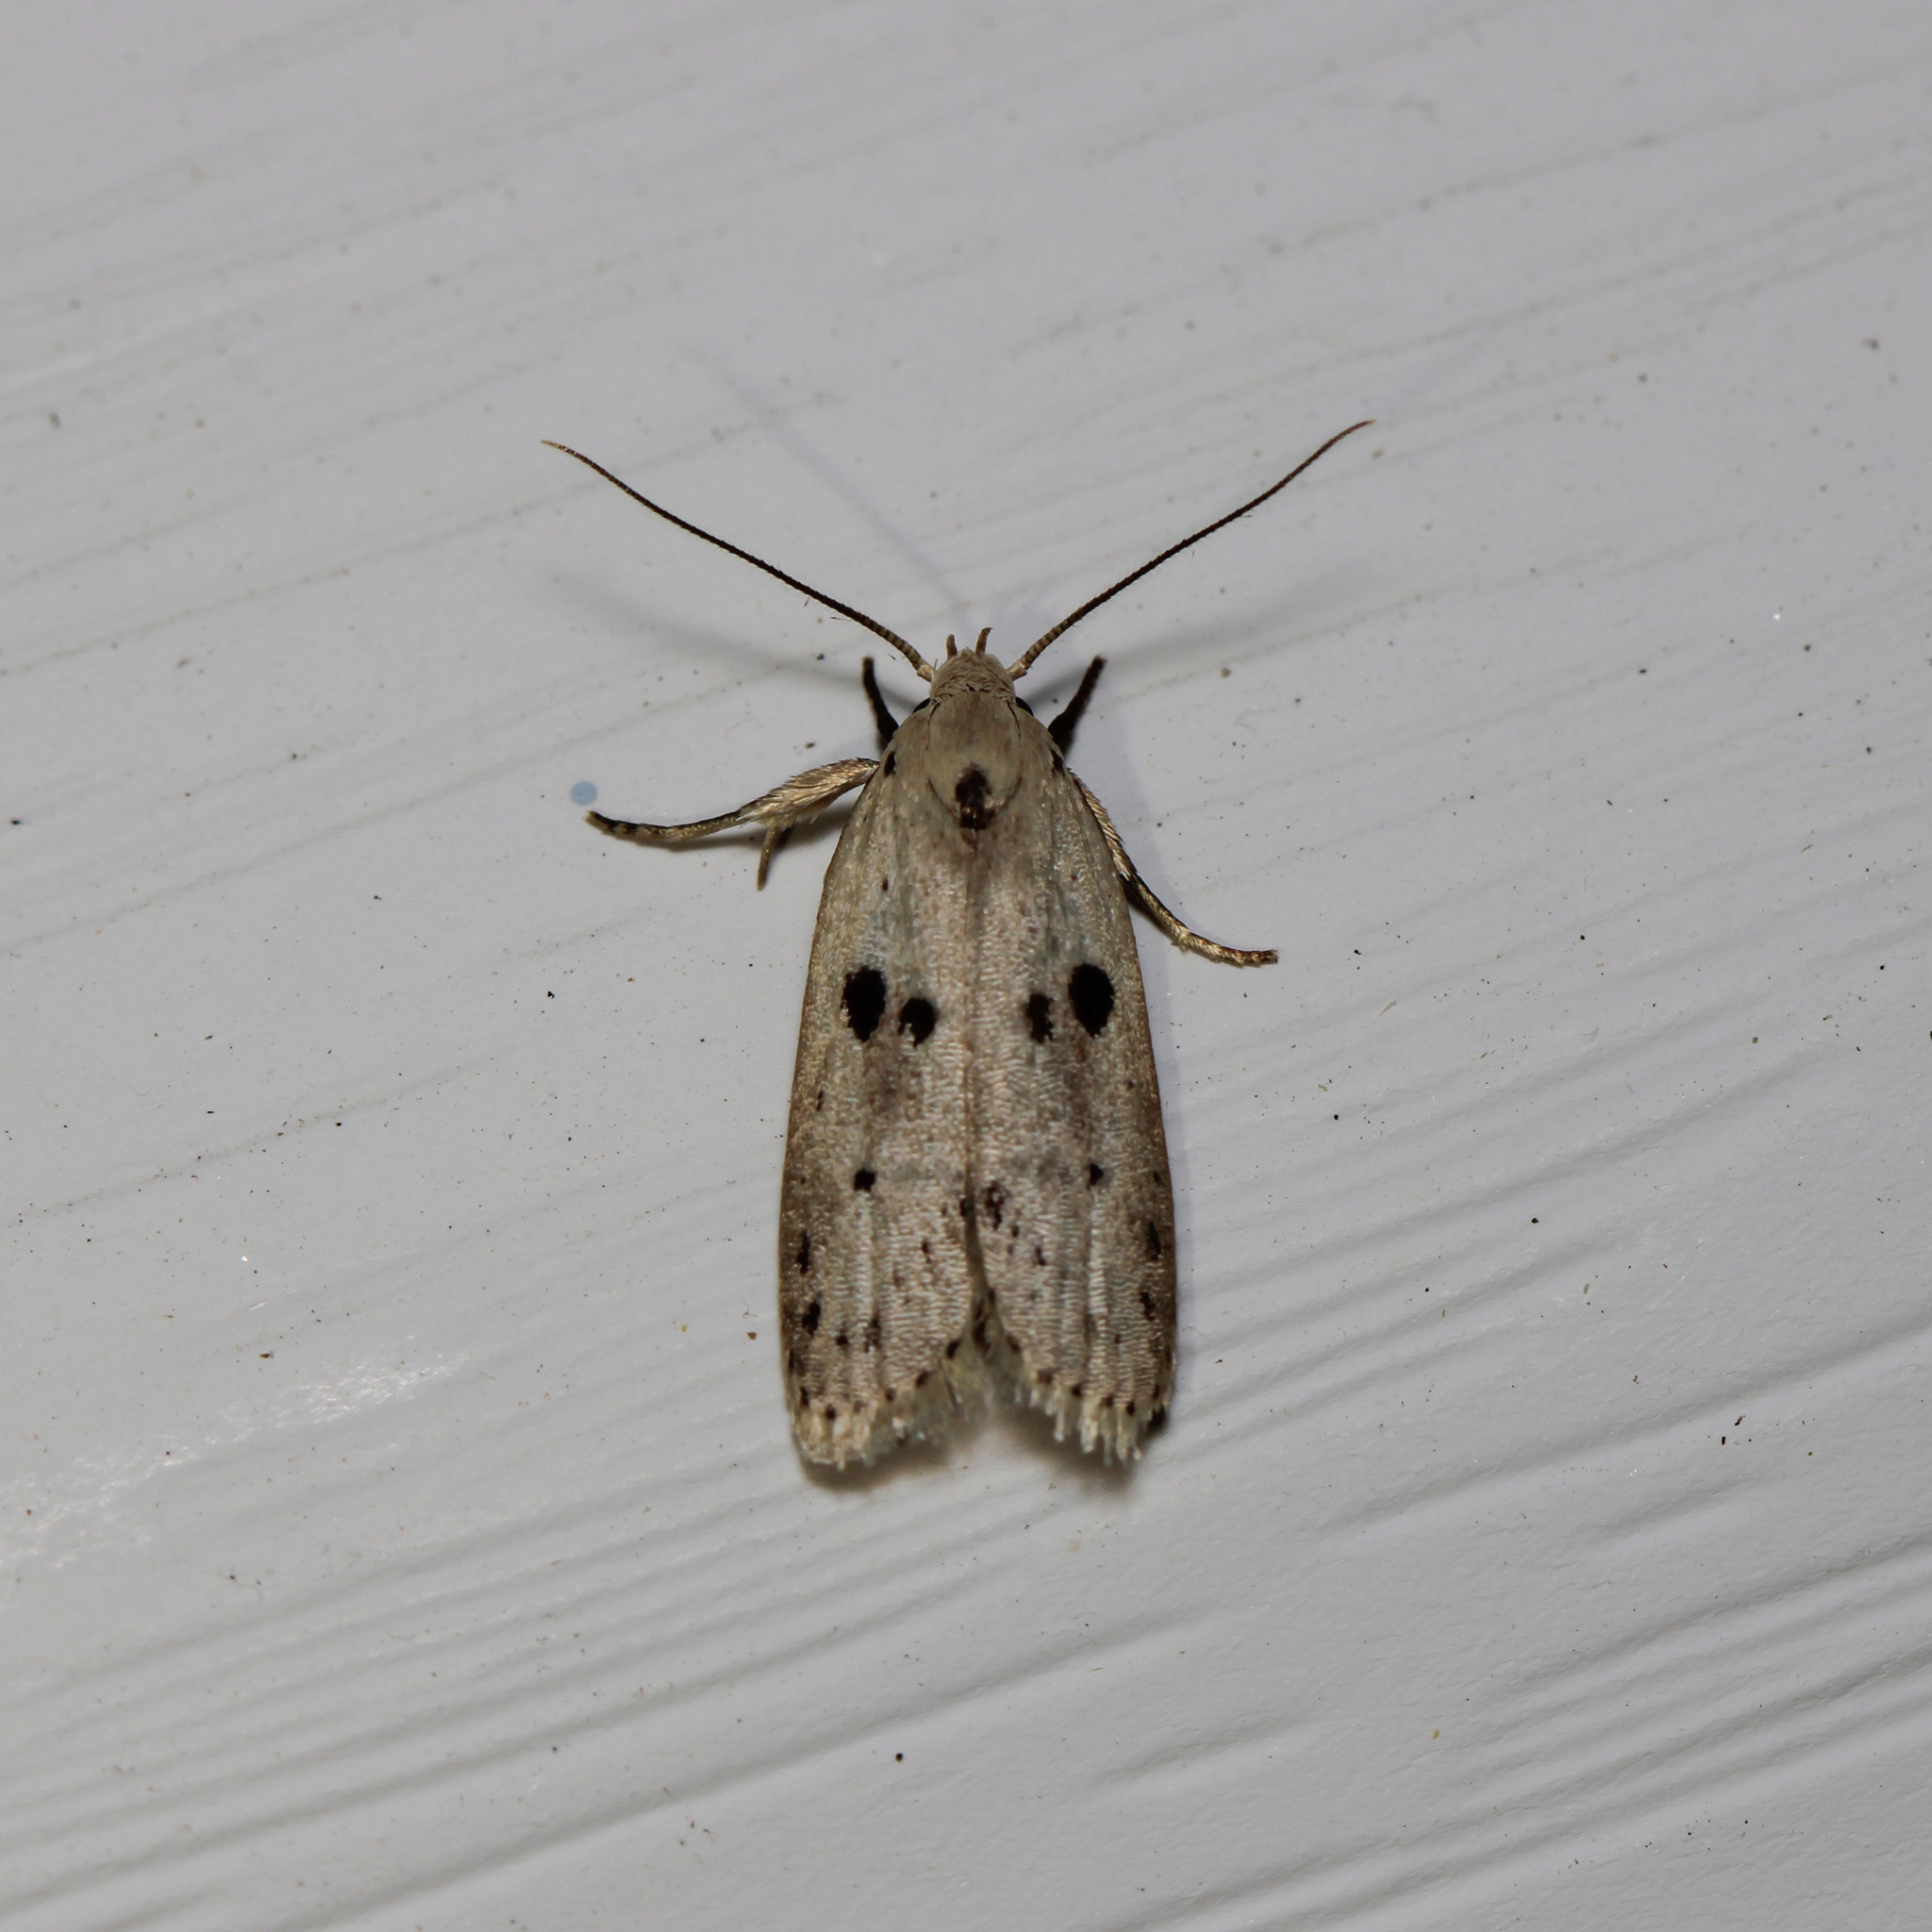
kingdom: Animalia
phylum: Arthropoda
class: Insecta
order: Lepidoptera
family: Peleopodidae
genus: Scythropiodes
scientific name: Scythropiodes issikii
